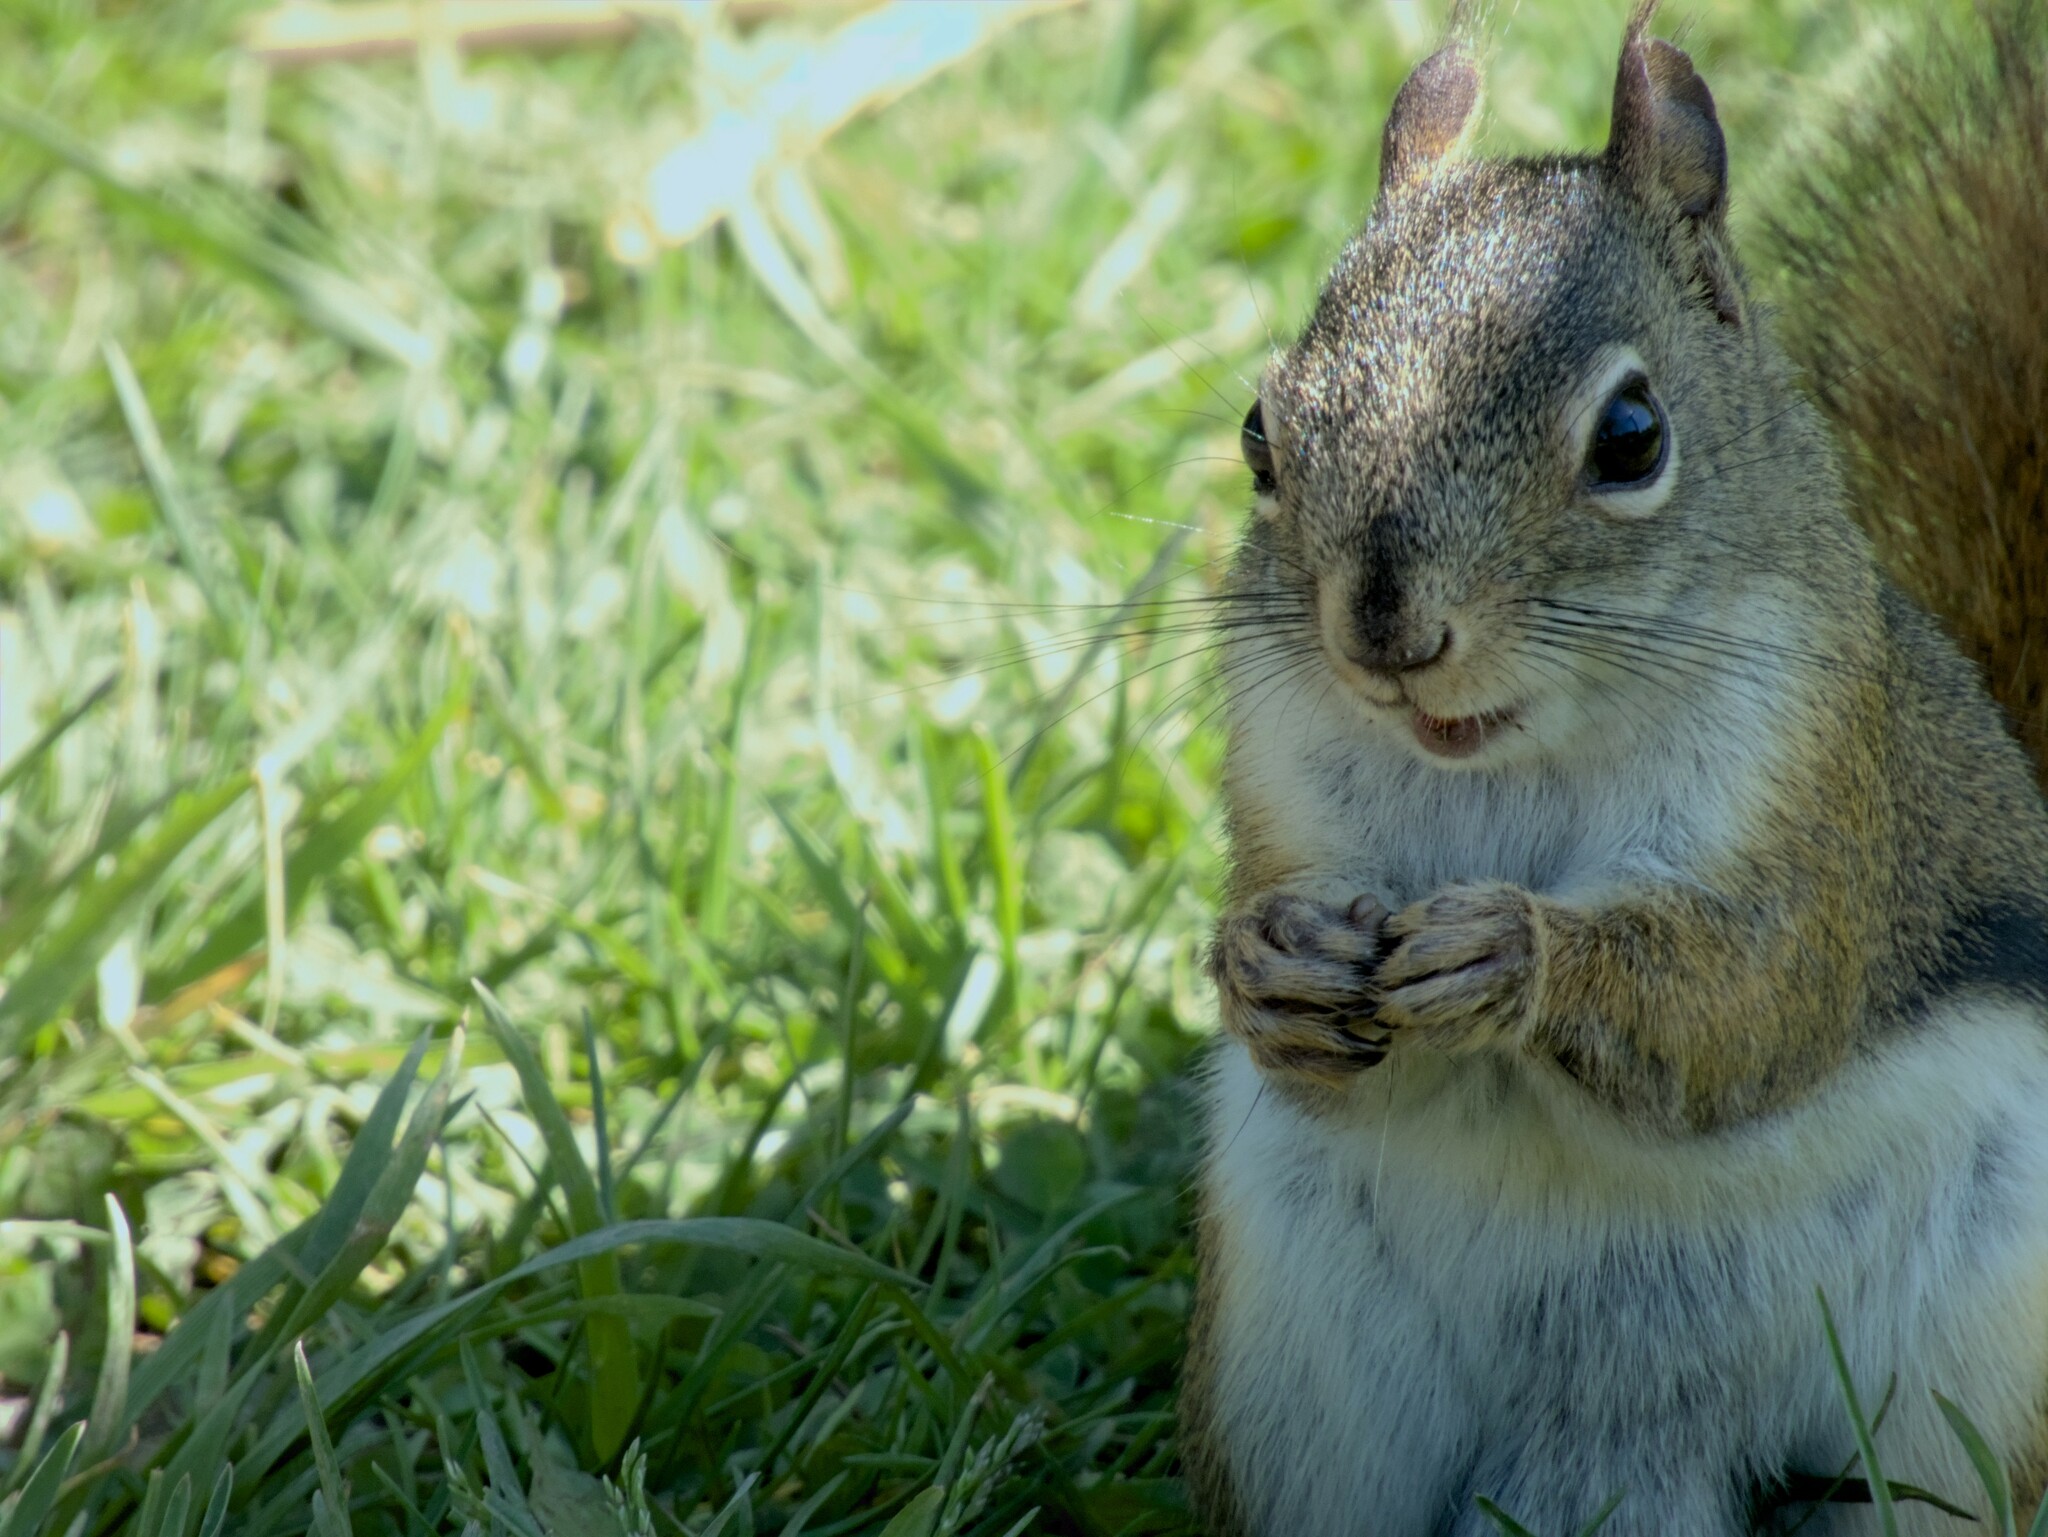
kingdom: Animalia
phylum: Chordata
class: Mammalia
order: Rodentia
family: Sciuridae
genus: Tamiasciurus
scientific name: Tamiasciurus hudsonicus
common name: Red squirrel
